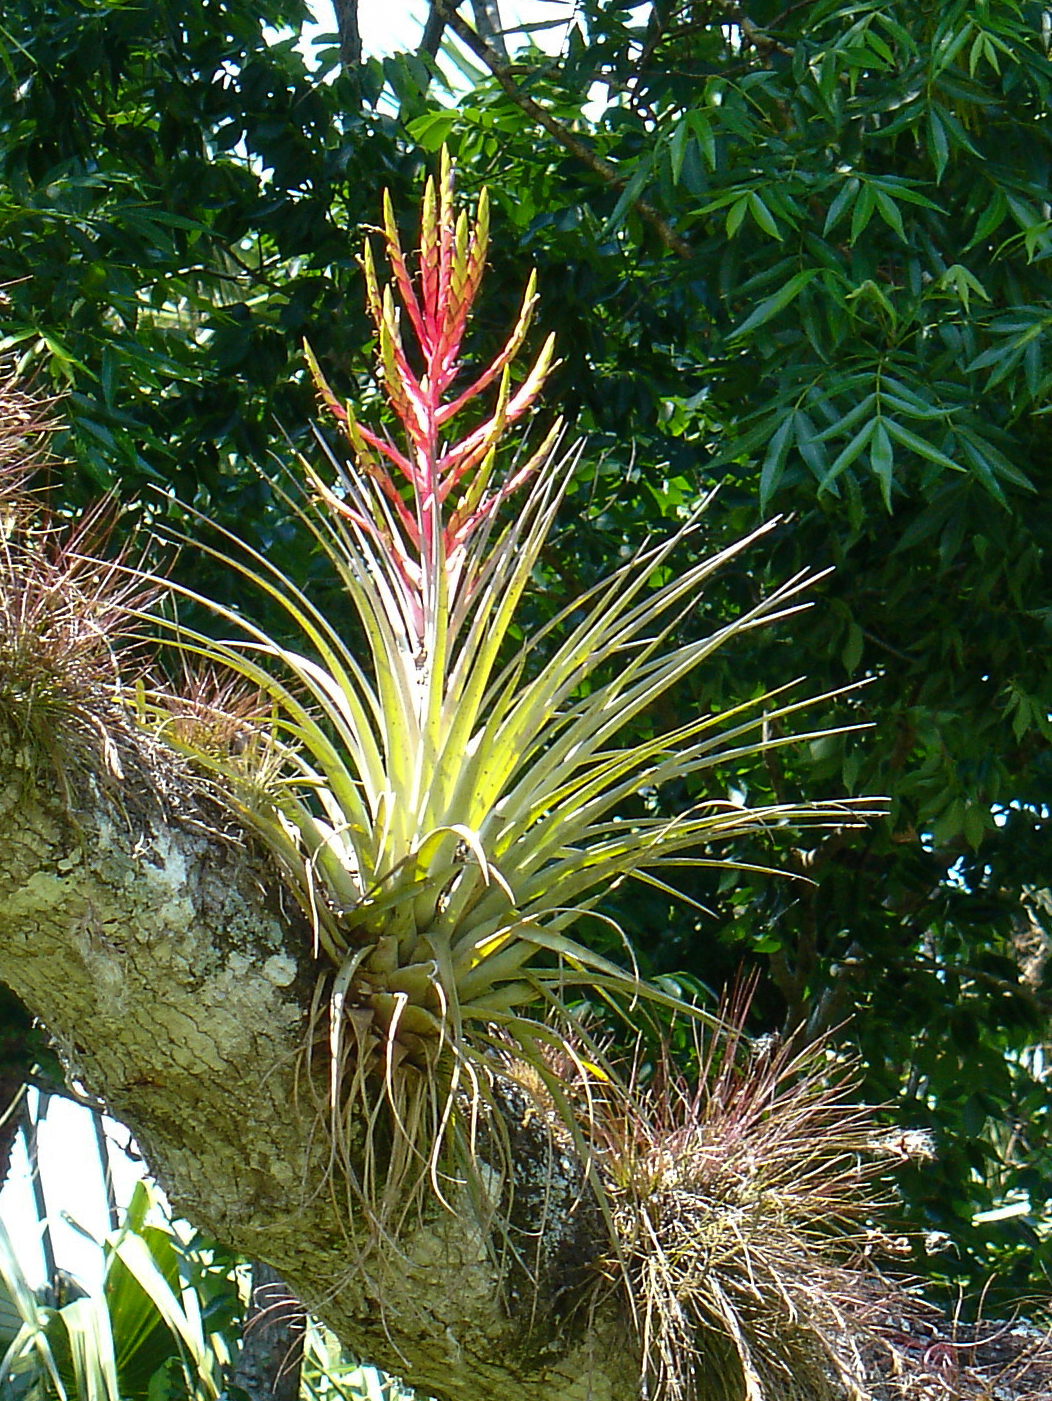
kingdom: Plantae
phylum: Tracheophyta
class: Liliopsida
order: Poales
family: Bromeliaceae
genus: Tillandsia
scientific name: Tillandsia fasciculata
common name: Giant airplant
